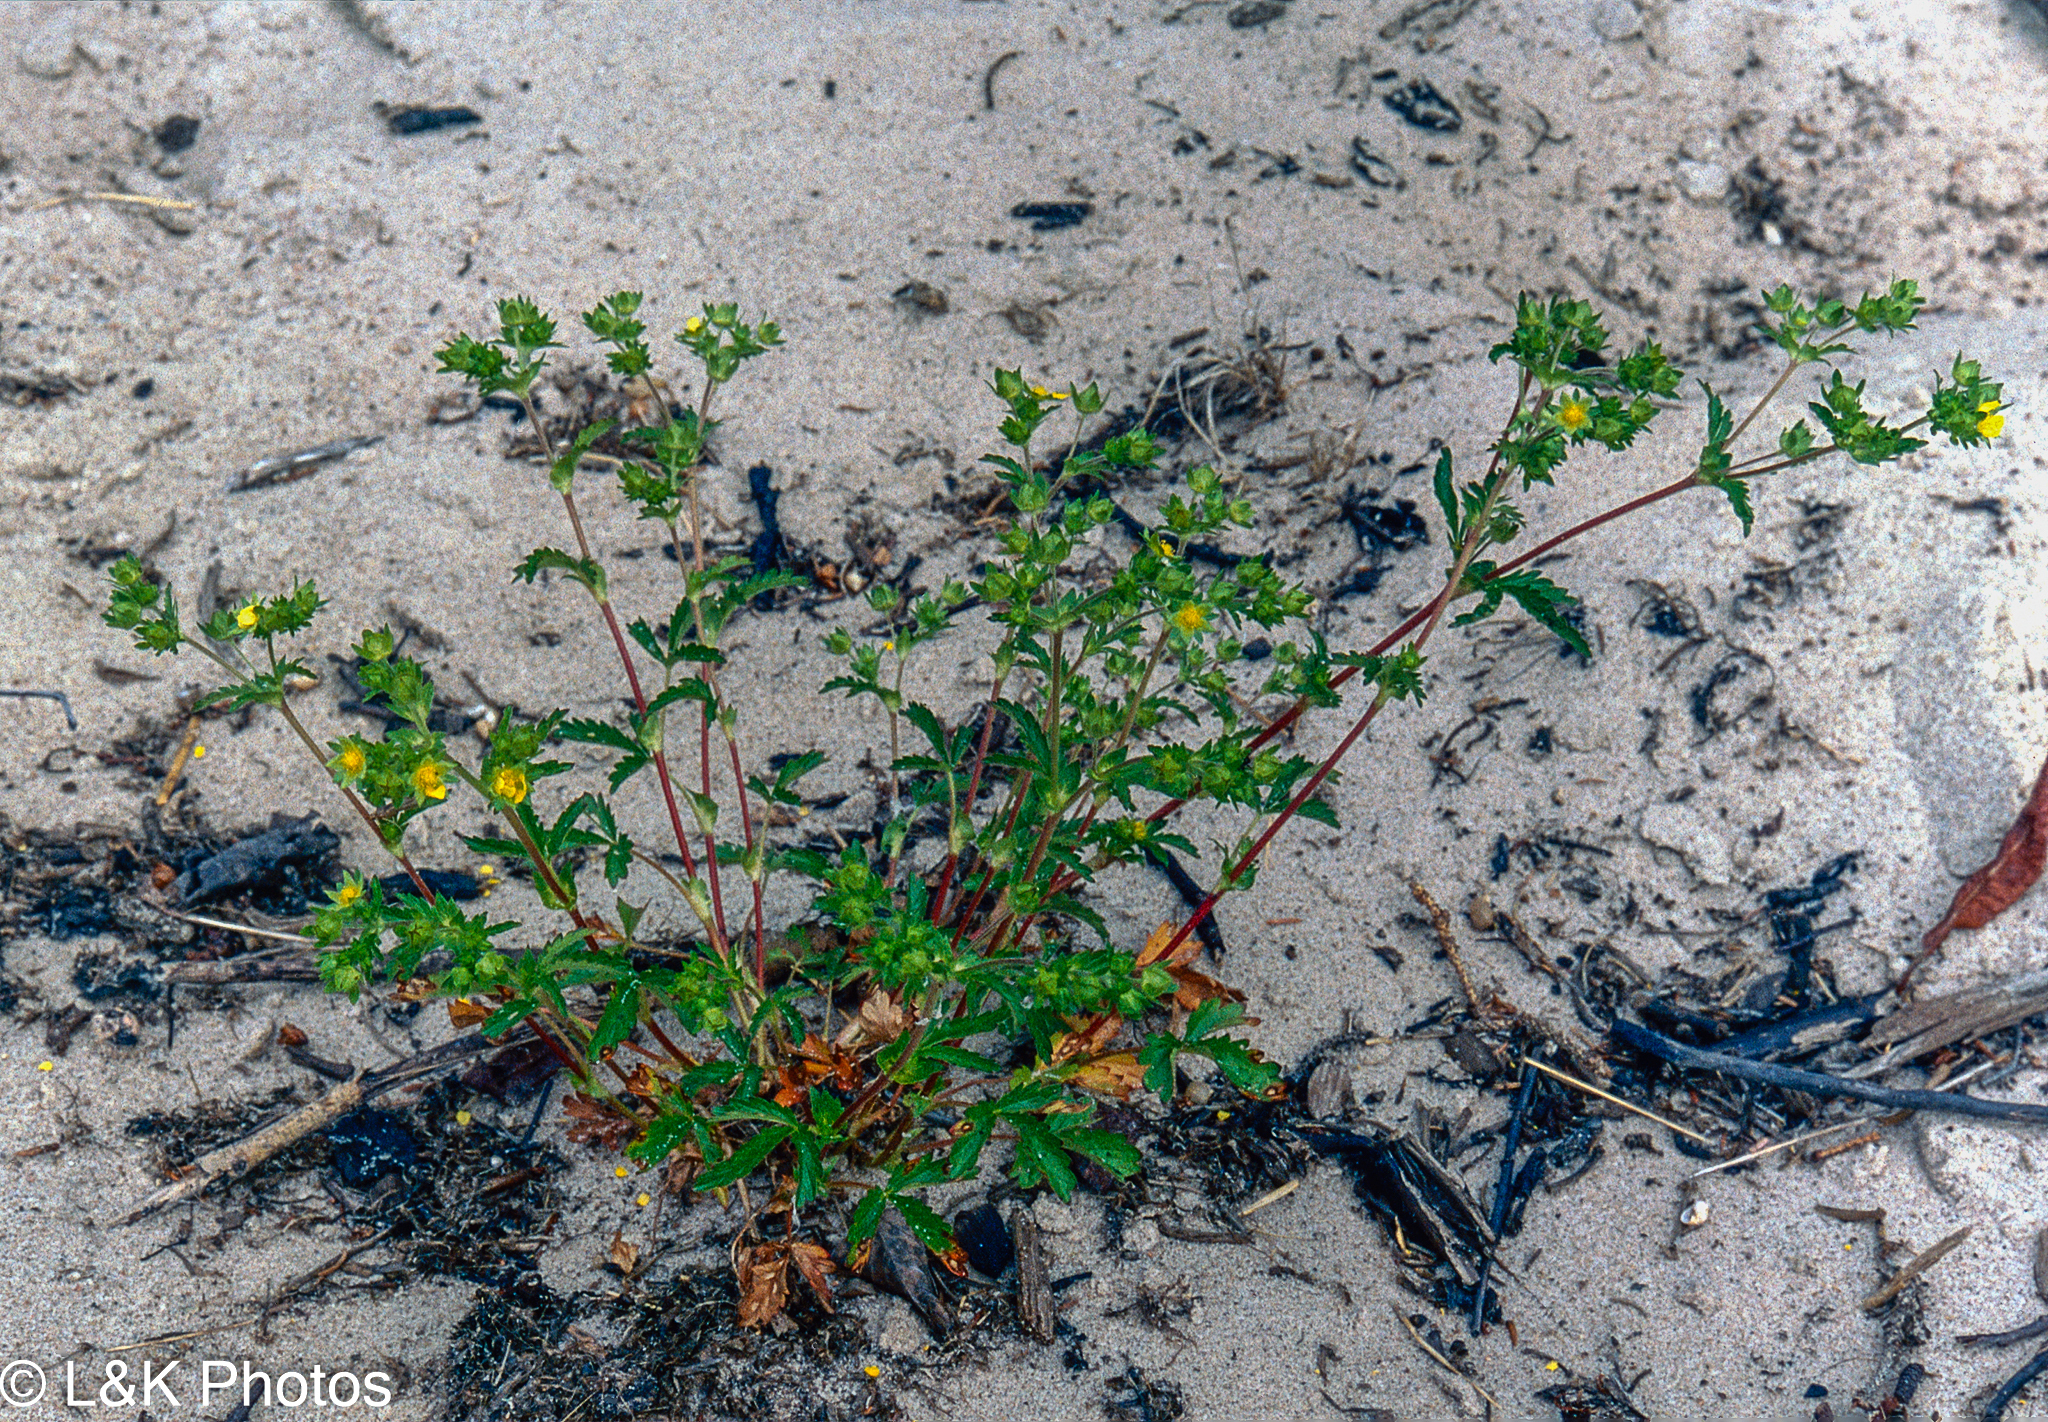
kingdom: Plantae
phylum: Tracheophyta
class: Magnoliopsida
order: Rosales
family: Rosaceae
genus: Potentilla
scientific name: Potentilla norvegica
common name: Ternate-leaved cinquefoil
